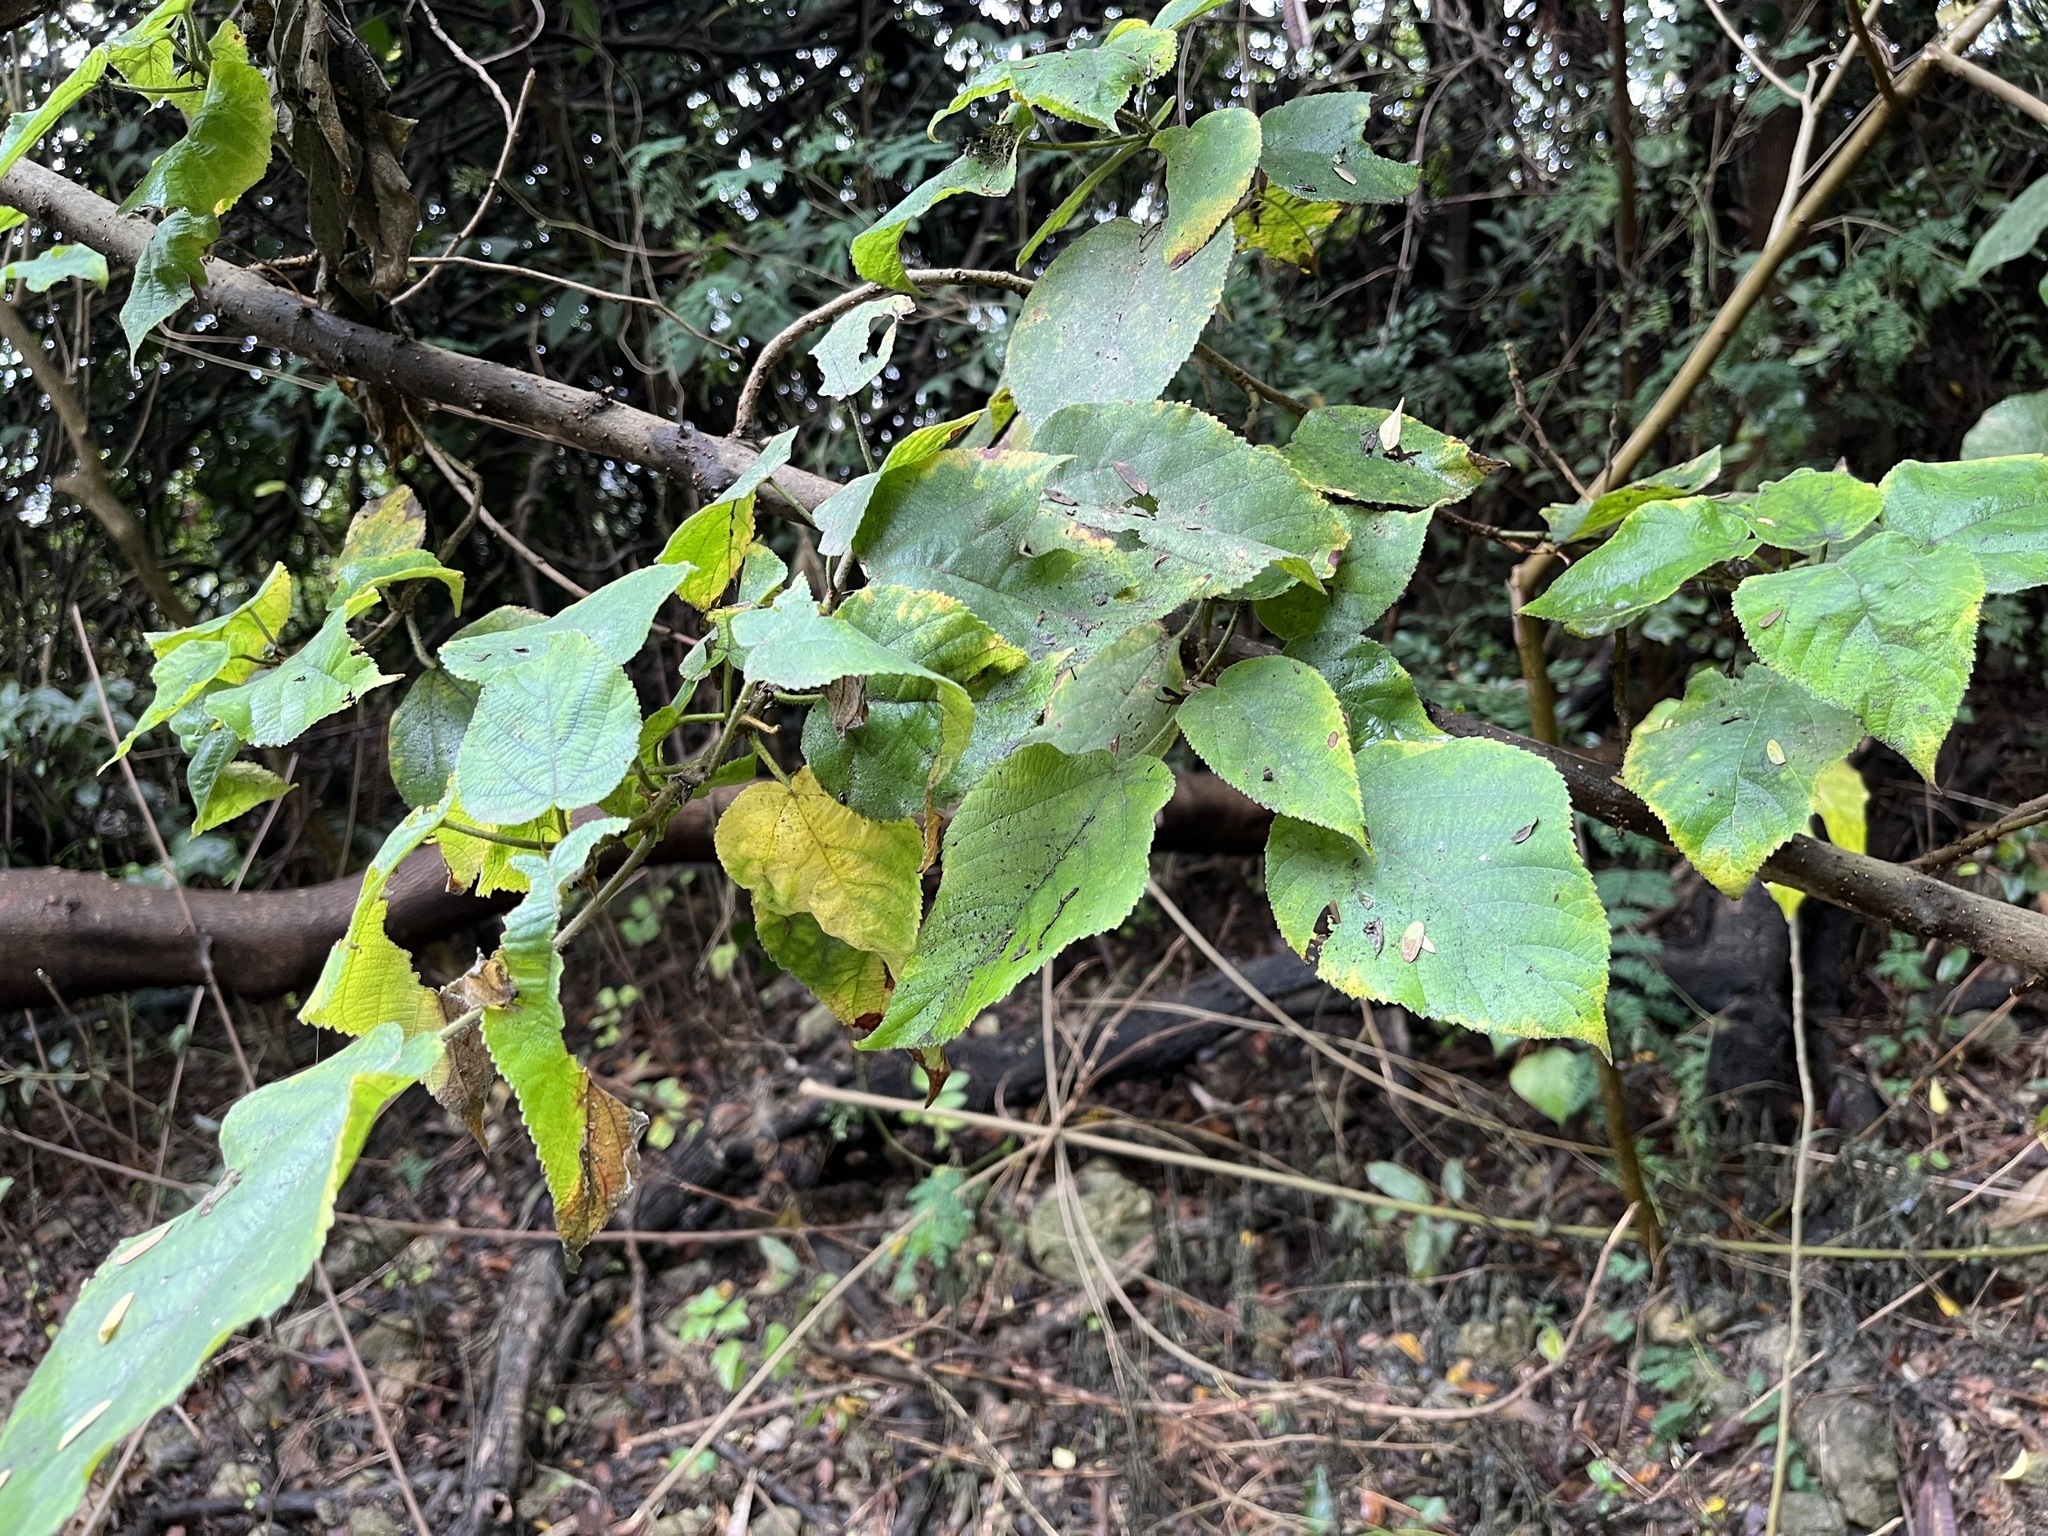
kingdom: Plantae
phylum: Tracheophyta
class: Magnoliopsida
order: Rosales
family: Moraceae
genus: Broussonetia
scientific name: Broussonetia papyrifera
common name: Paper mulberry
